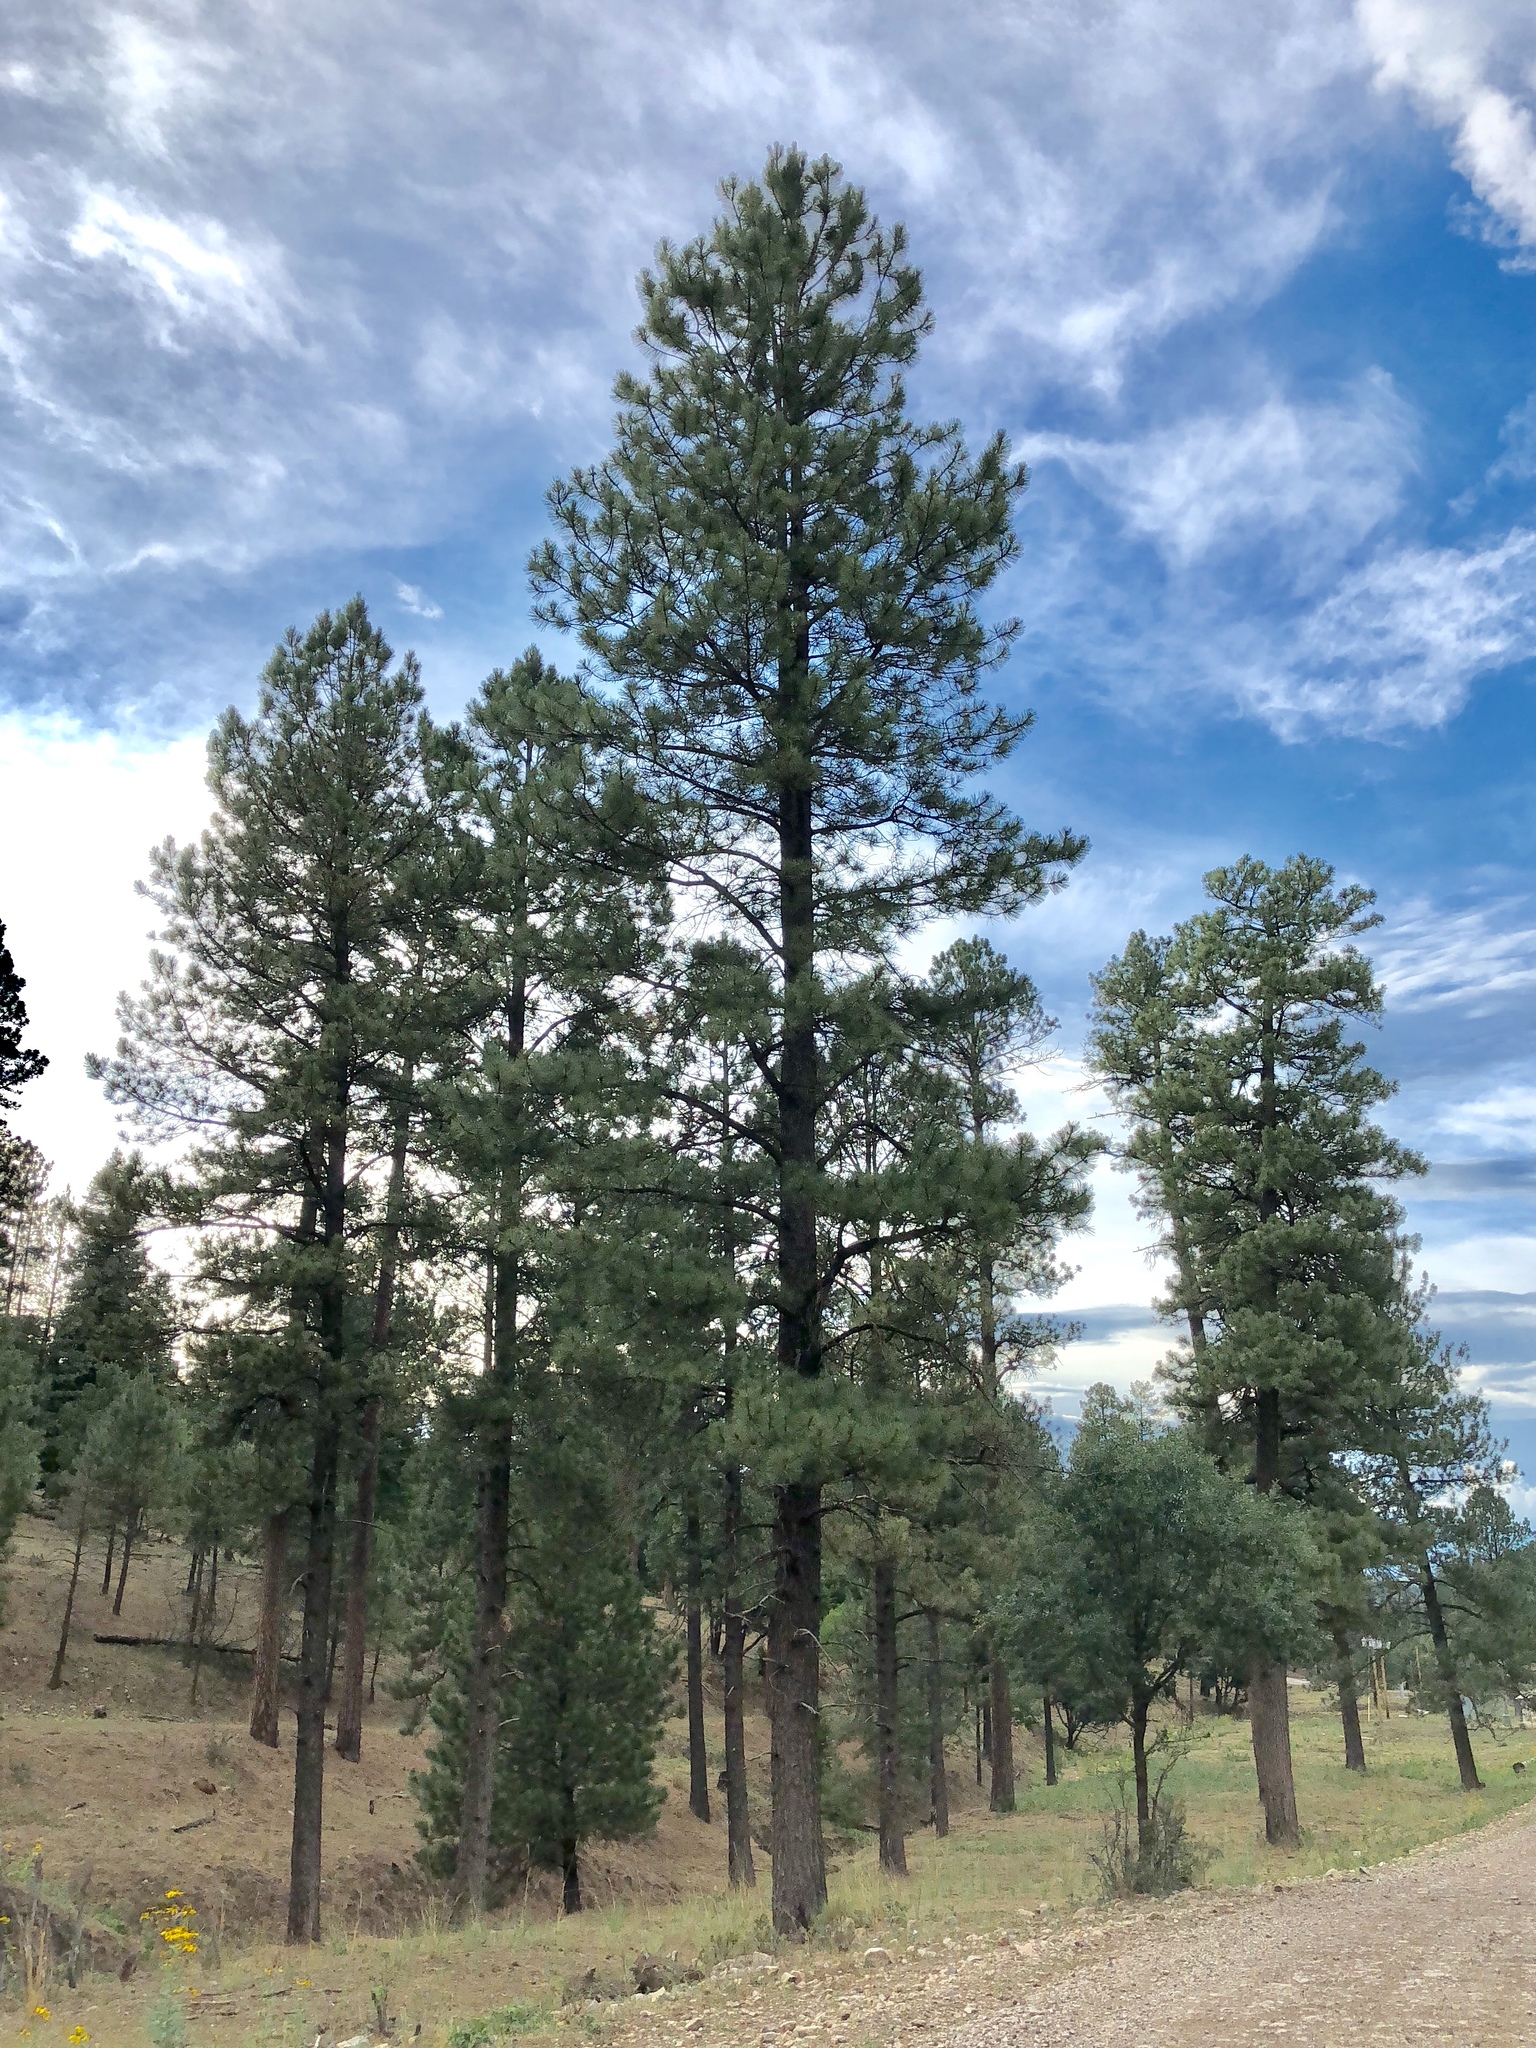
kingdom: Plantae
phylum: Tracheophyta
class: Pinopsida
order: Pinales
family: Pinaceae
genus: Pinus
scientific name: Pinus ponderosa
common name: Western yellow-pine
